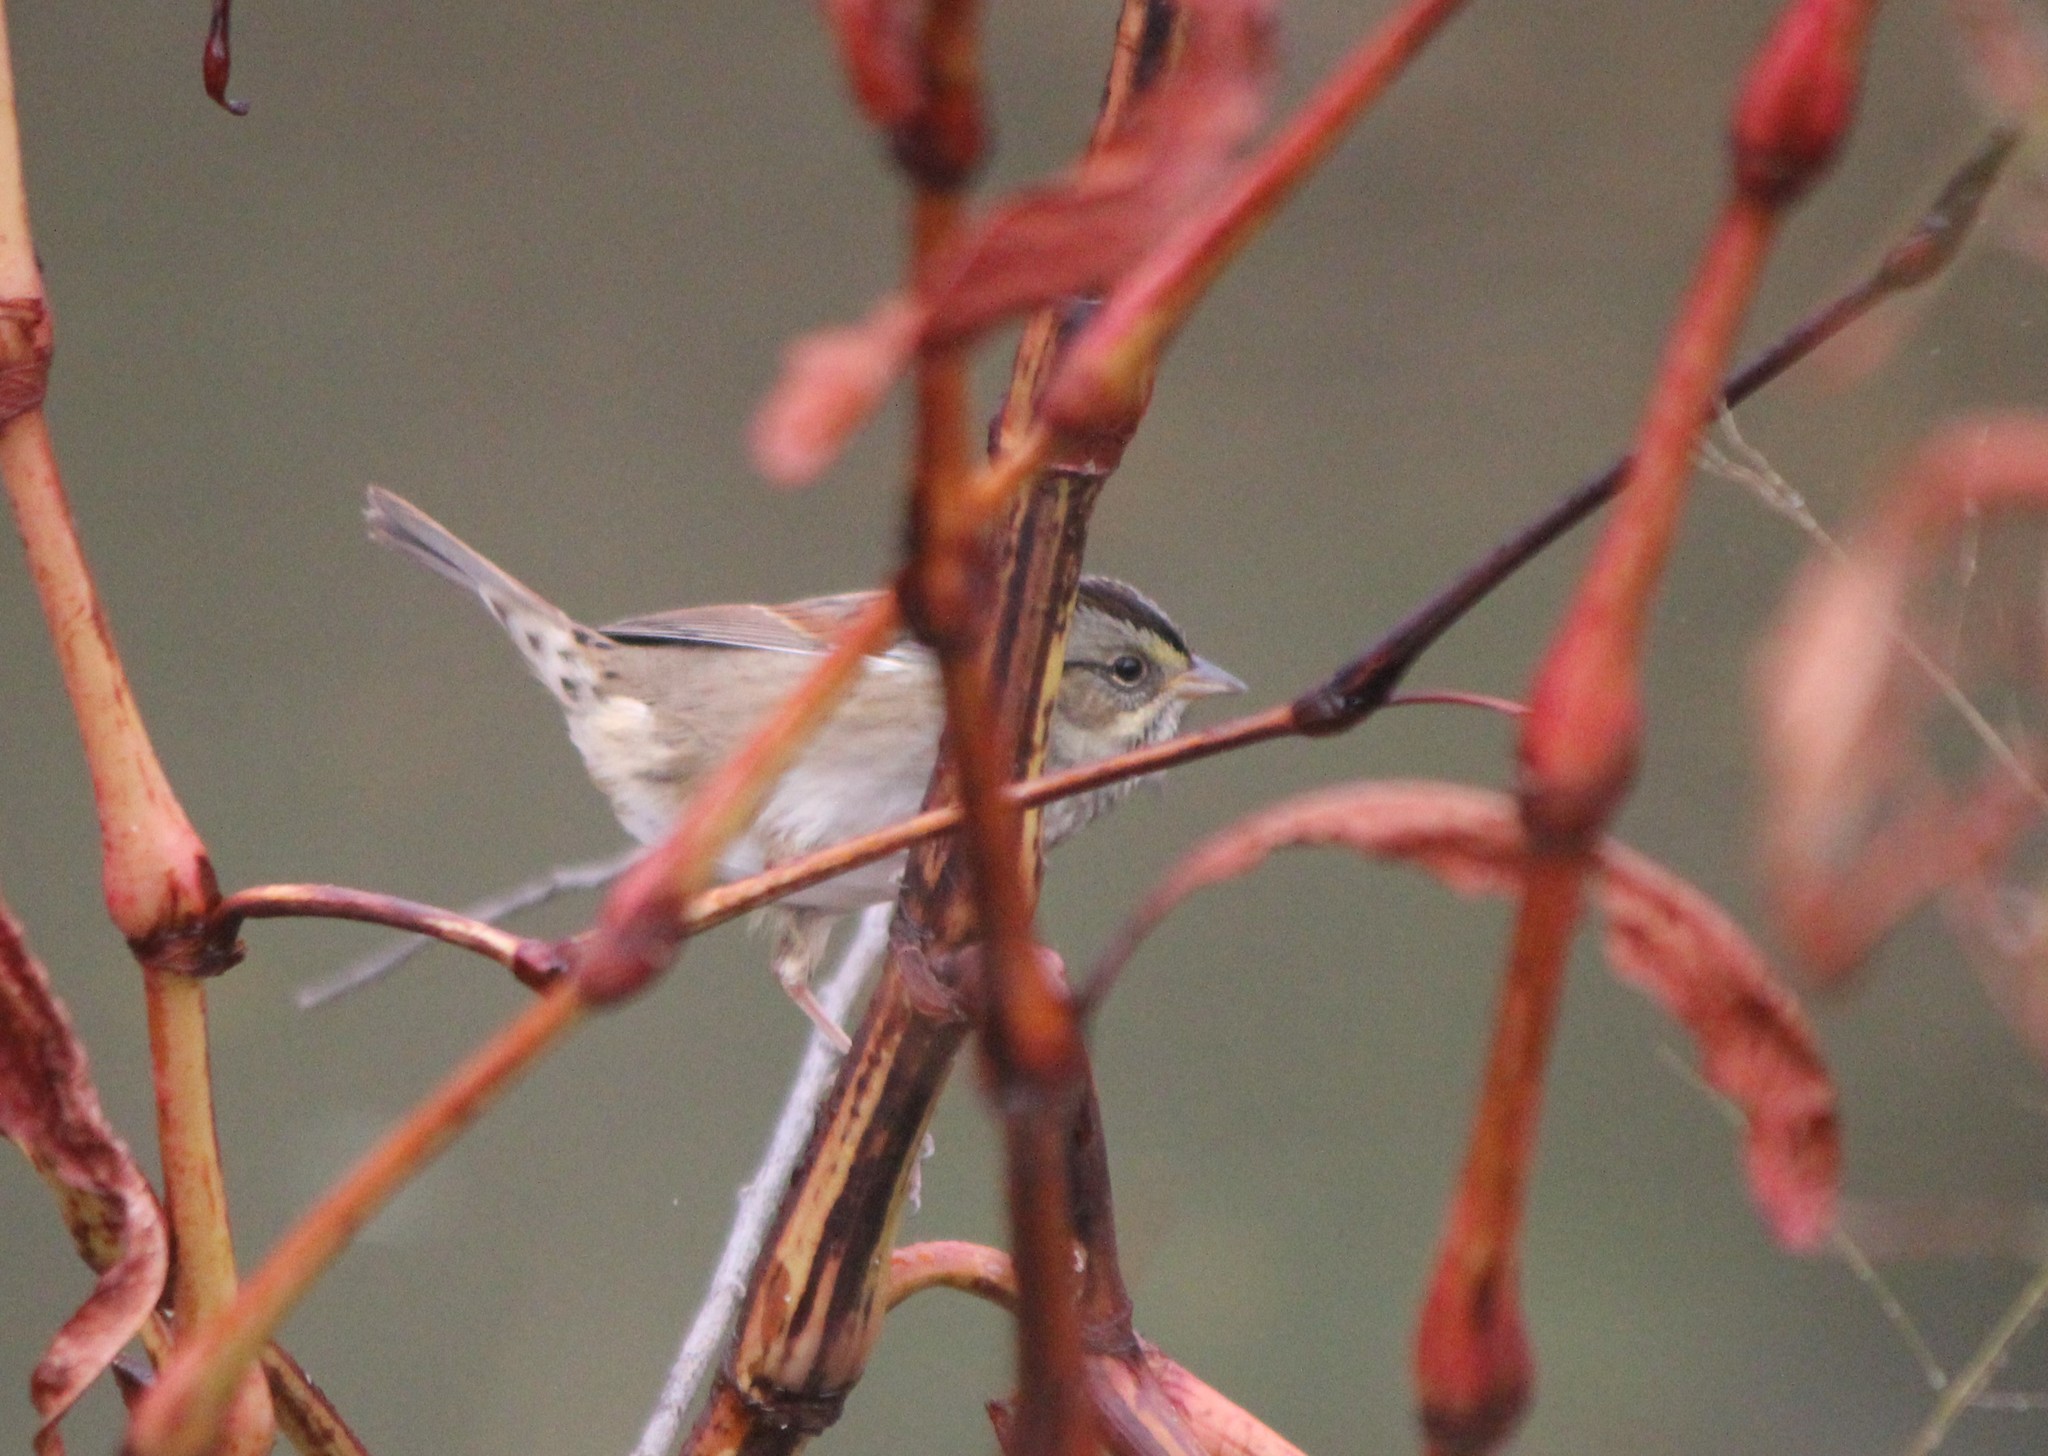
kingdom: Animalia
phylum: Chordata
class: Aves
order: Passeriformes
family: Passerellidae
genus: Melospiza
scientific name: Melospiza georgiana
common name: Swamp sparrow
